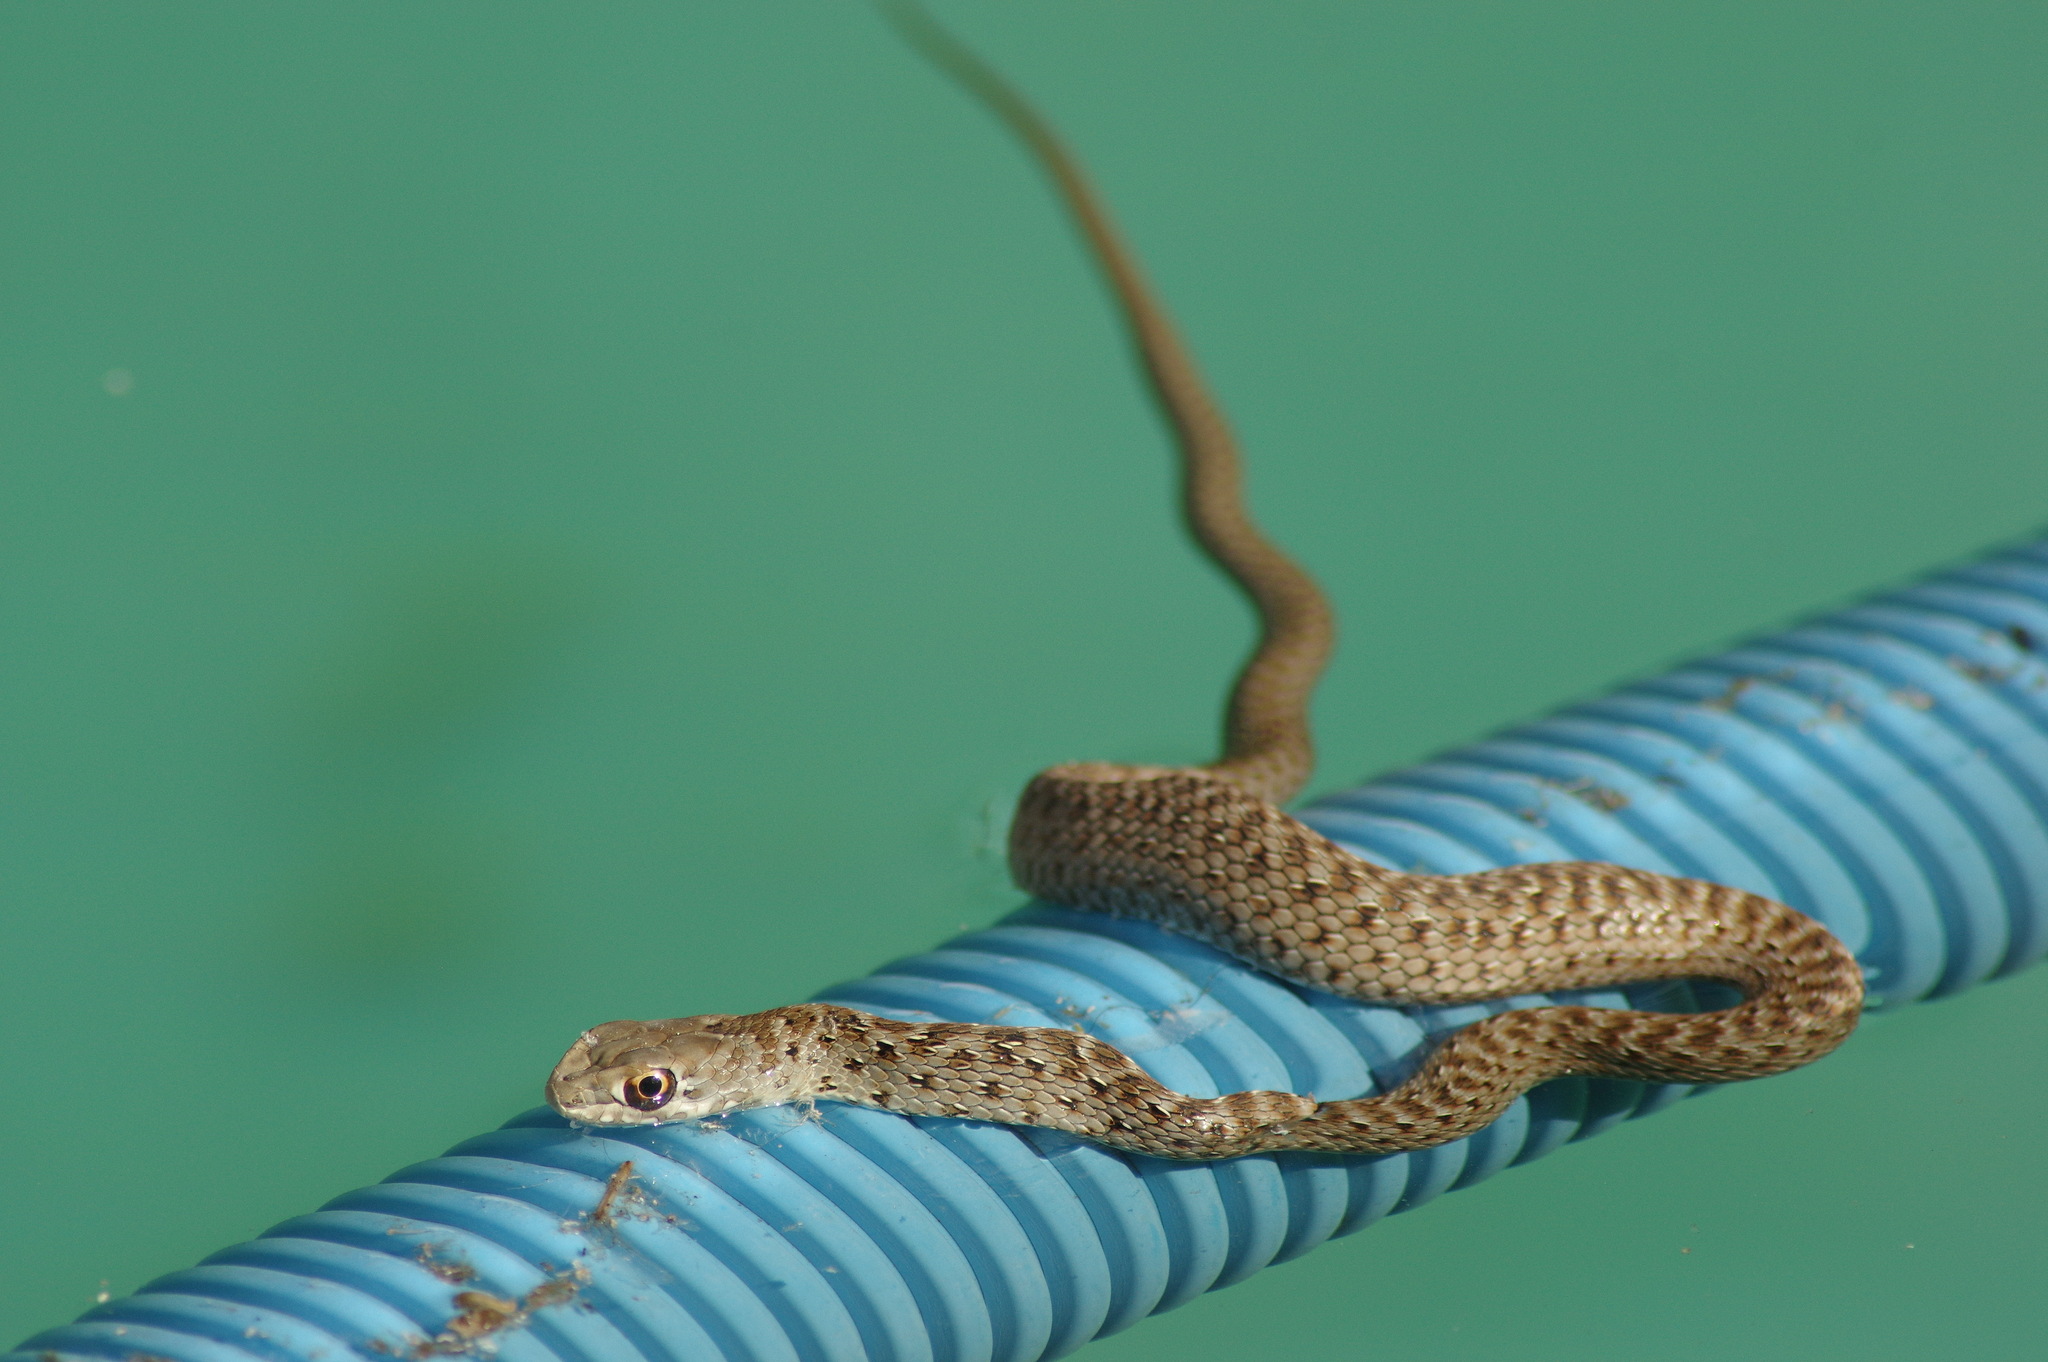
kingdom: Animalia
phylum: Chordata
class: Squamata
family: Psammophiidae
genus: Malpolon
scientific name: Malpolon monspessulanus
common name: Montpellier snake
